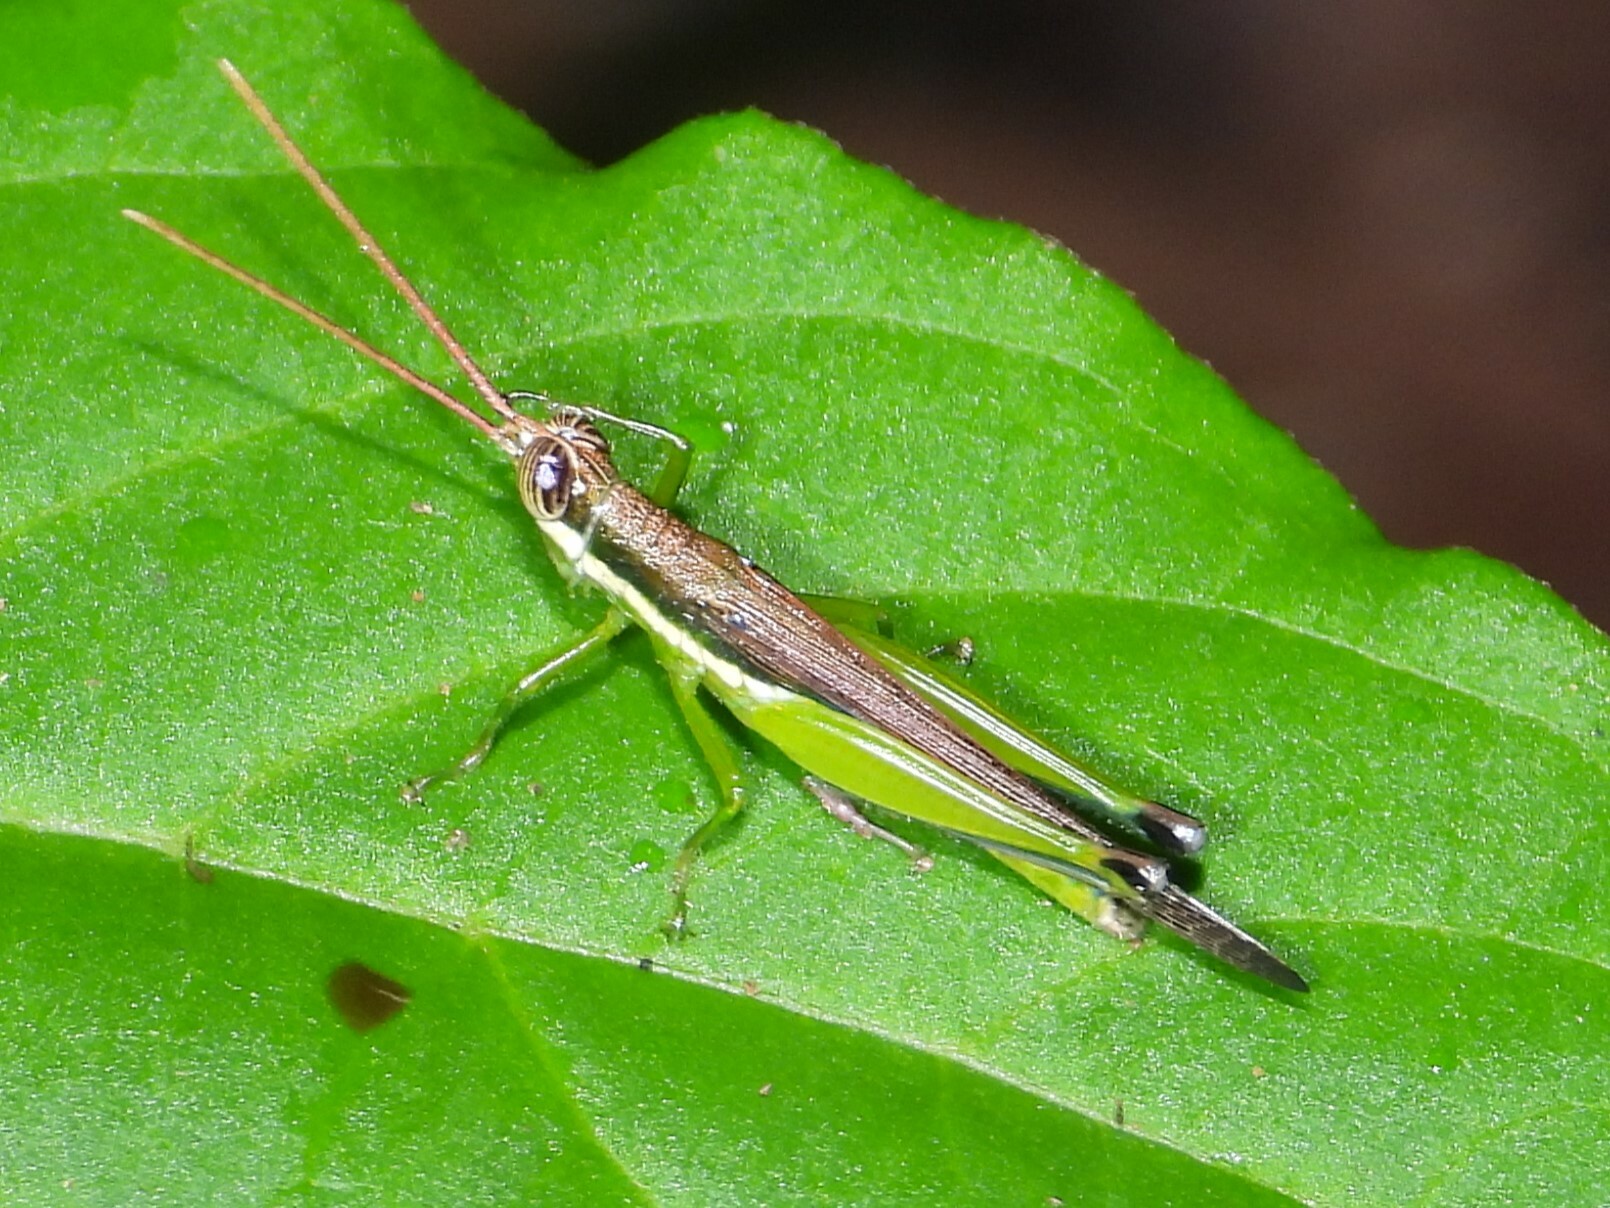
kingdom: Animalia
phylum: Arthropoda
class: Insecta
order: Orthoptera
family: Acrididae
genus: Stenopola
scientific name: Stenopola puncticeps
